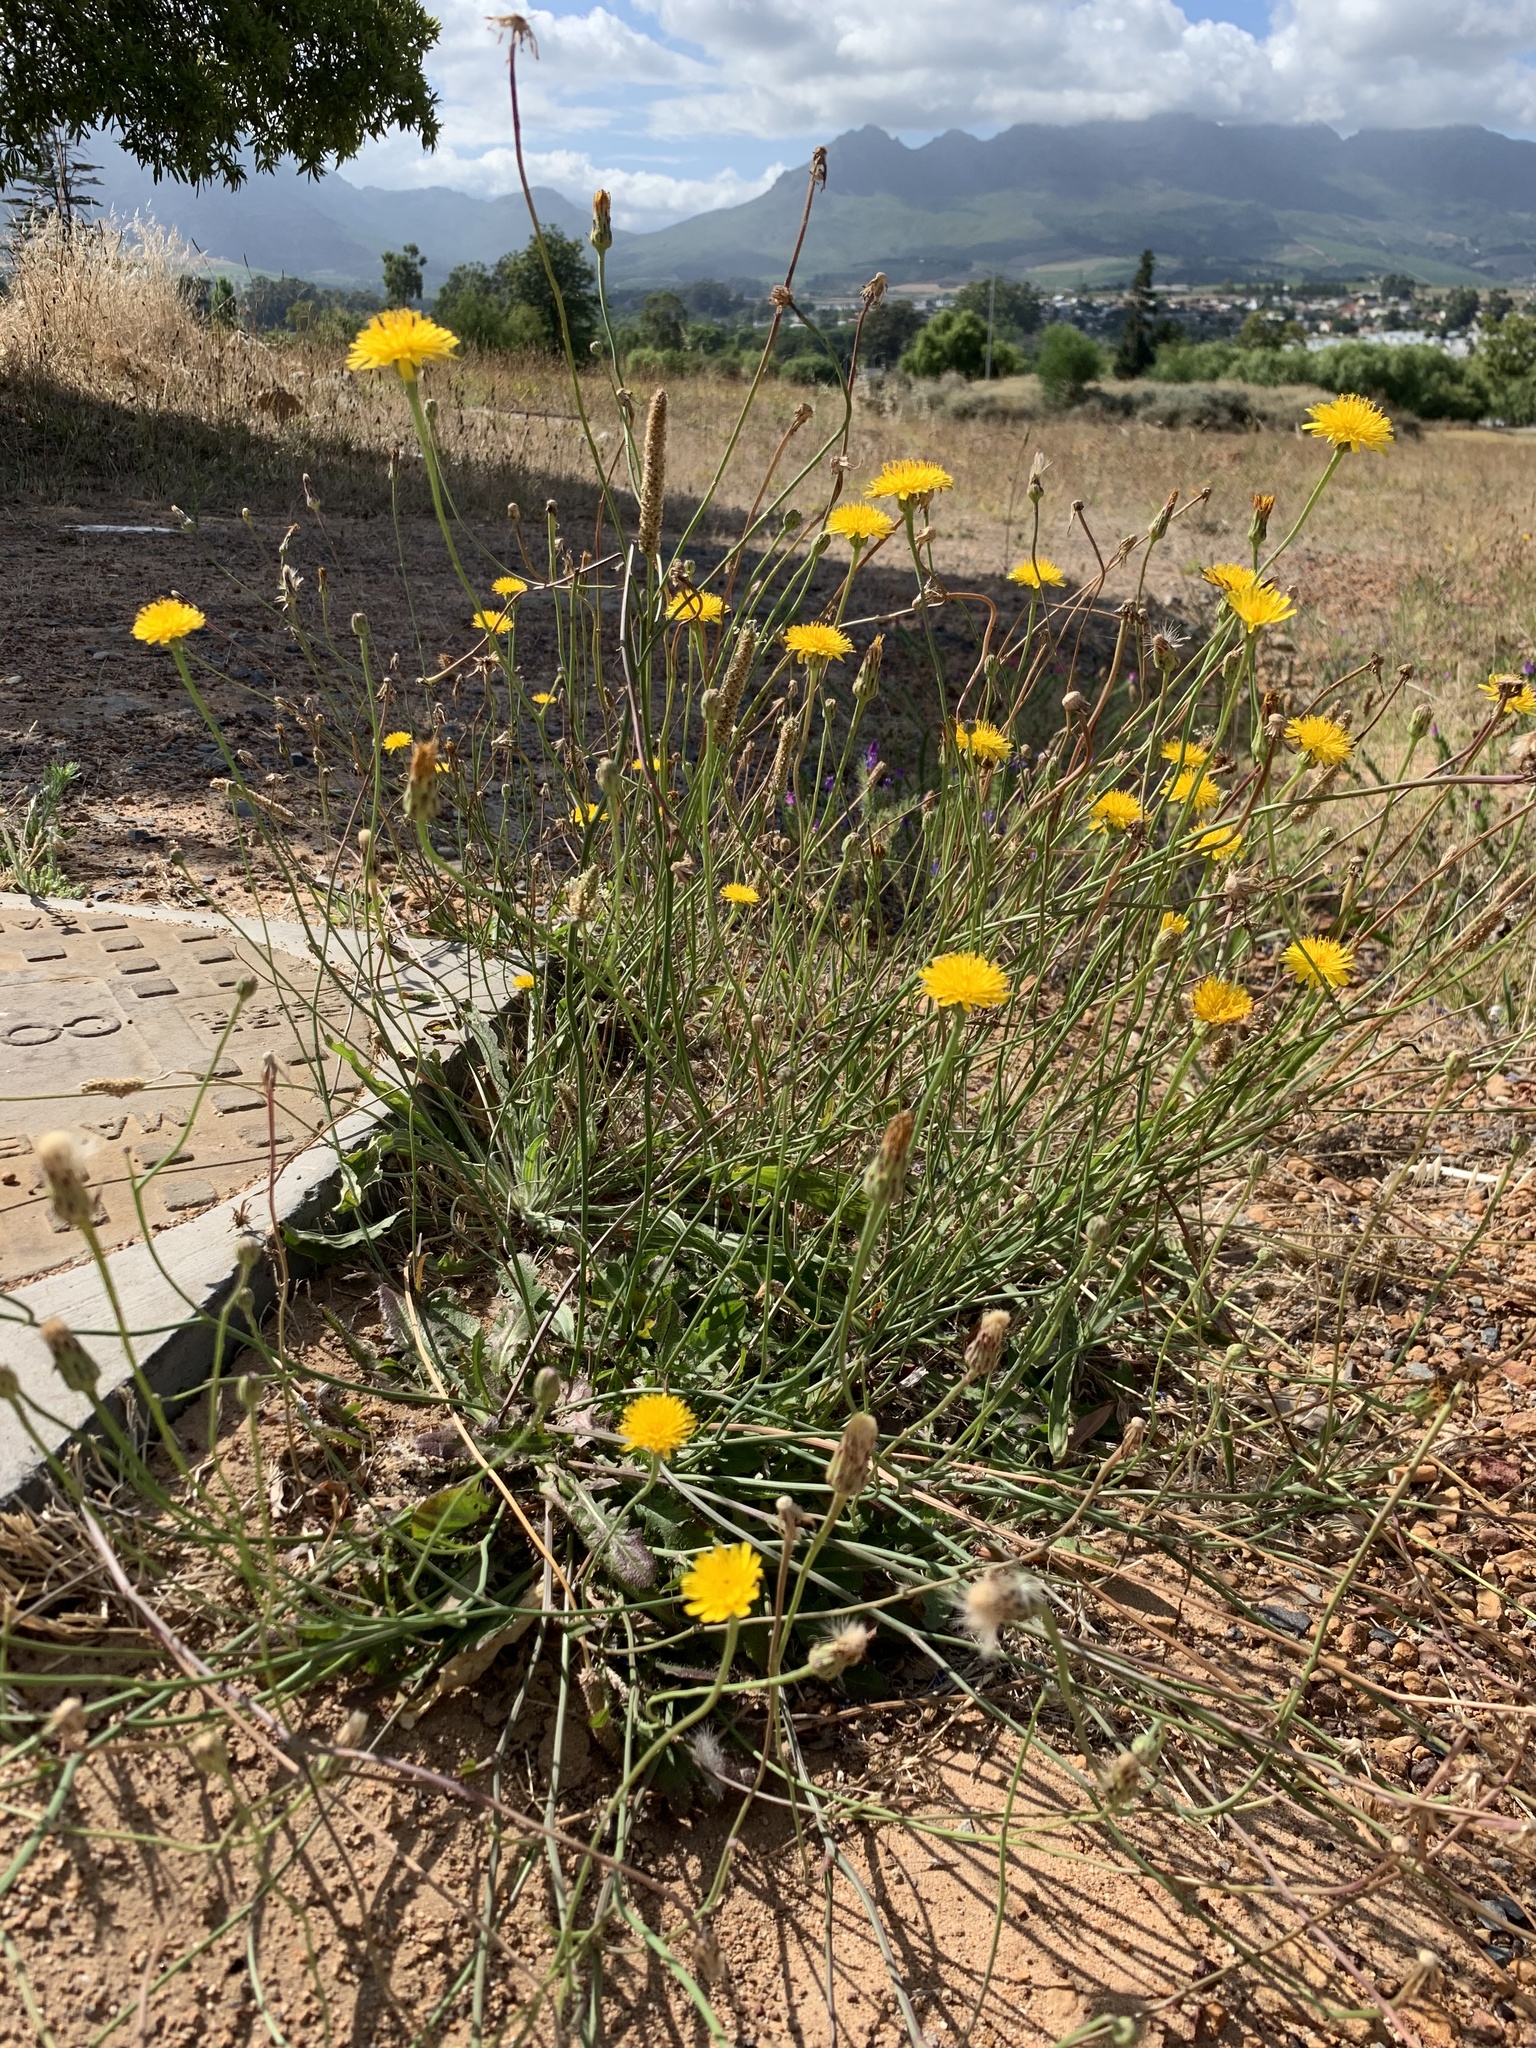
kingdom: Plantae
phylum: Tracheophyta
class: Magnoliopsida
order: Asterales
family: Asteraceae
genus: Hypochaeris
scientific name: Hypochaeris radicata
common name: Flatweed
